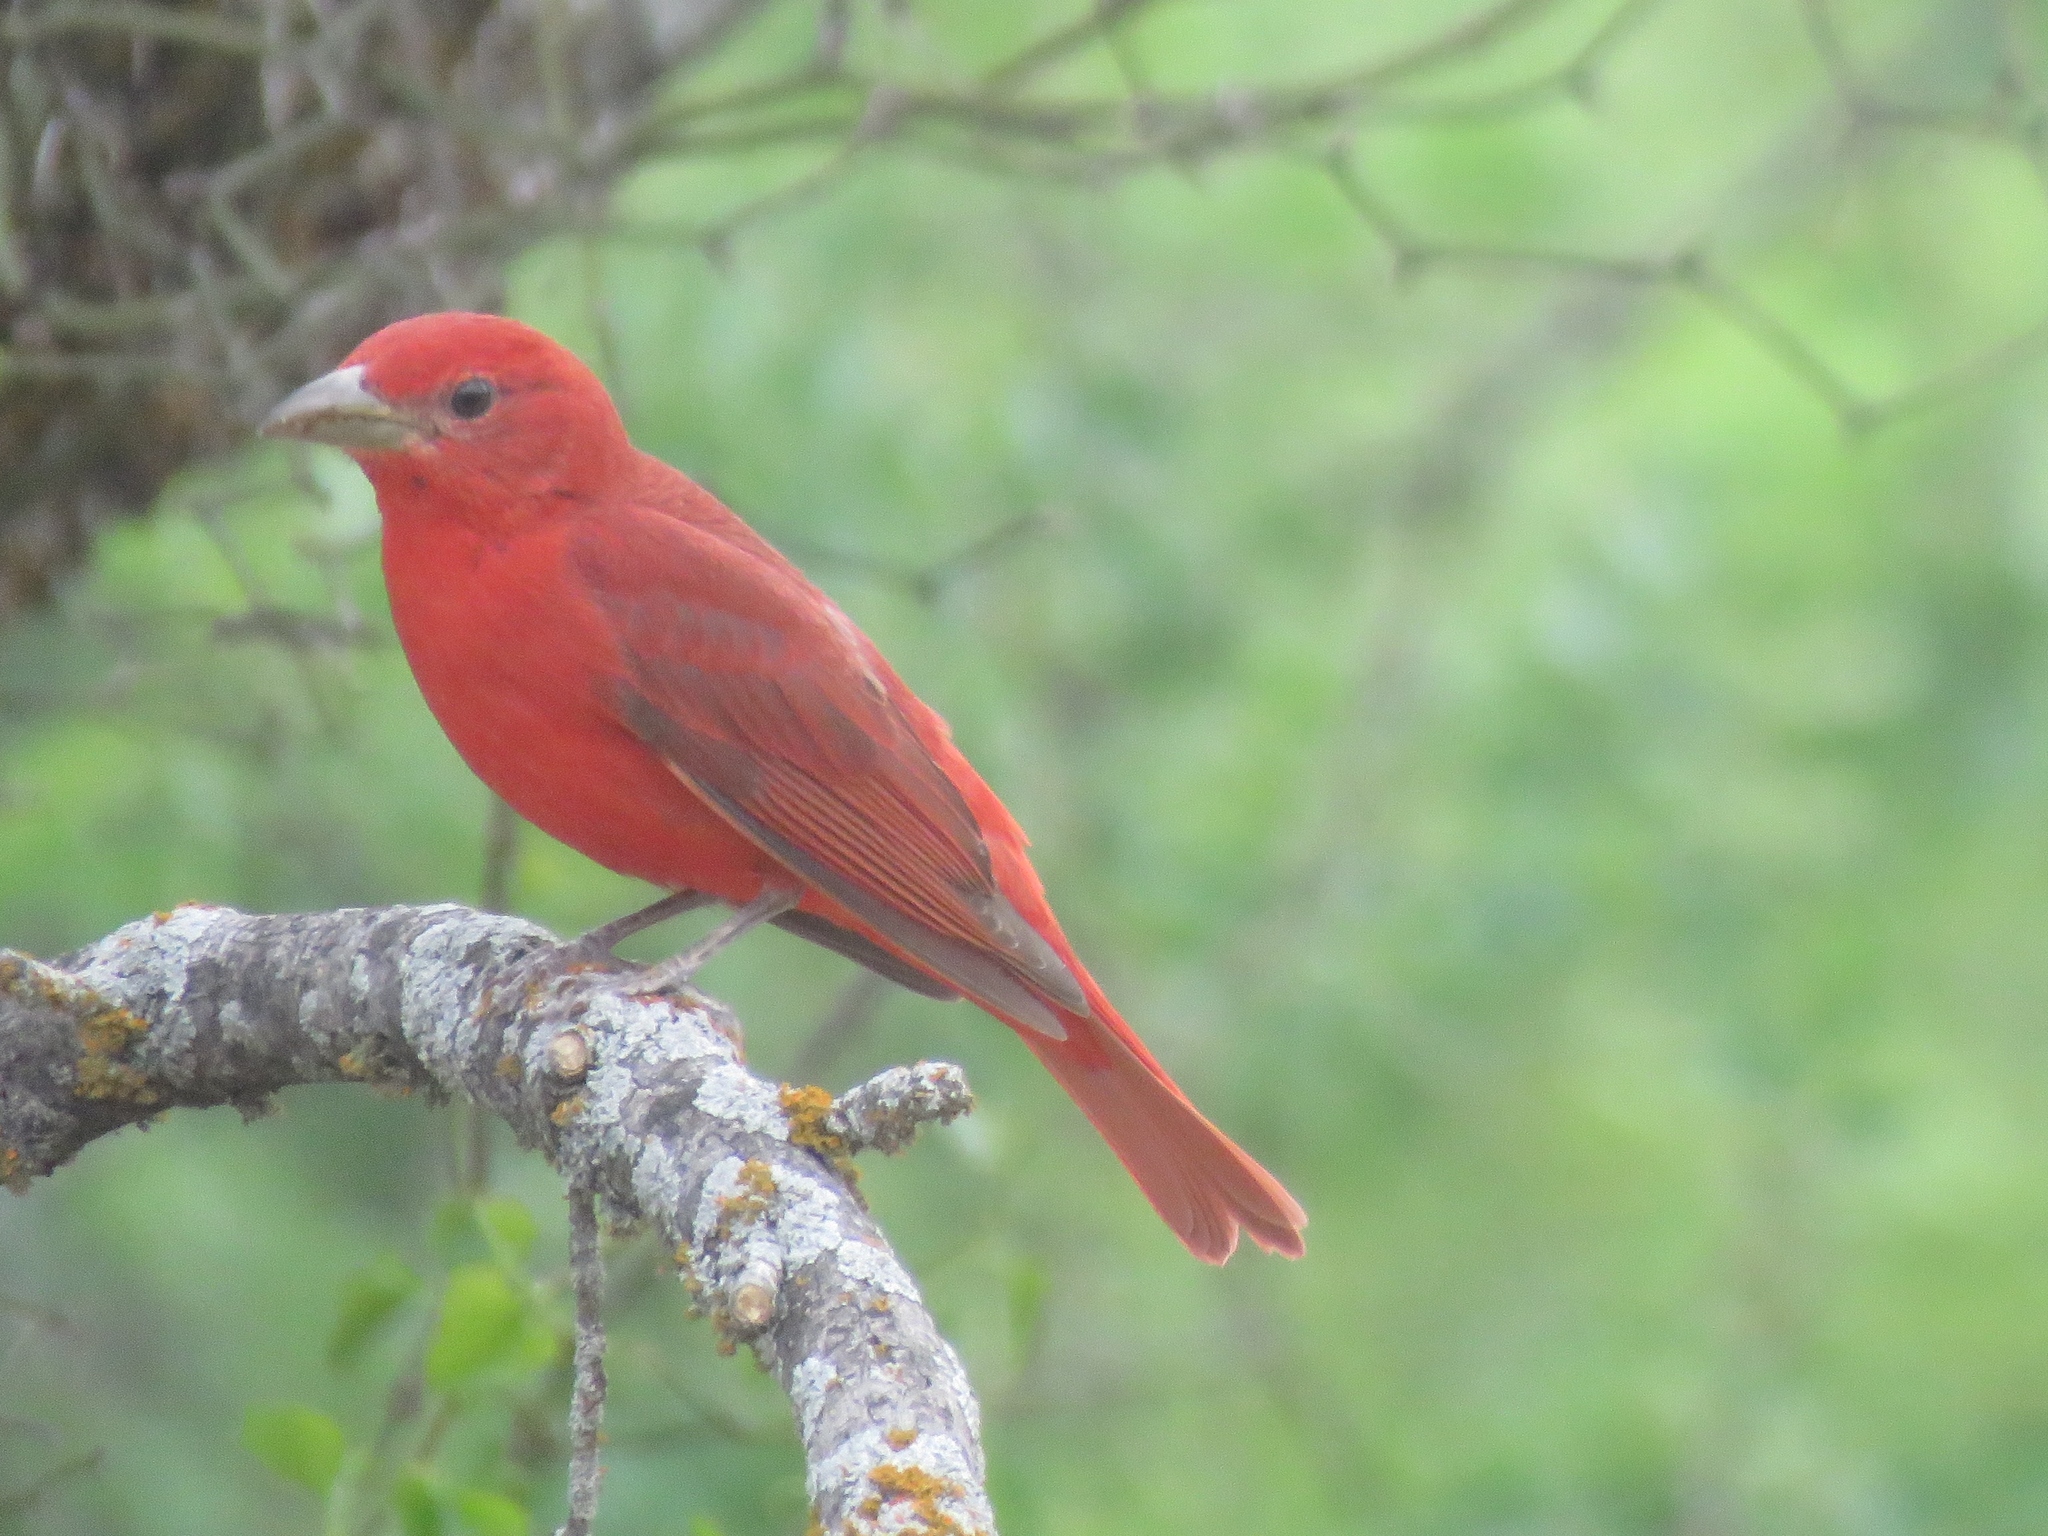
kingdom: Animalia
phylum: Chordata
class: Aves
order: Passeriformes
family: Cardinalidae
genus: Piranga
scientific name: Piranga rubra
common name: Summer tanager
